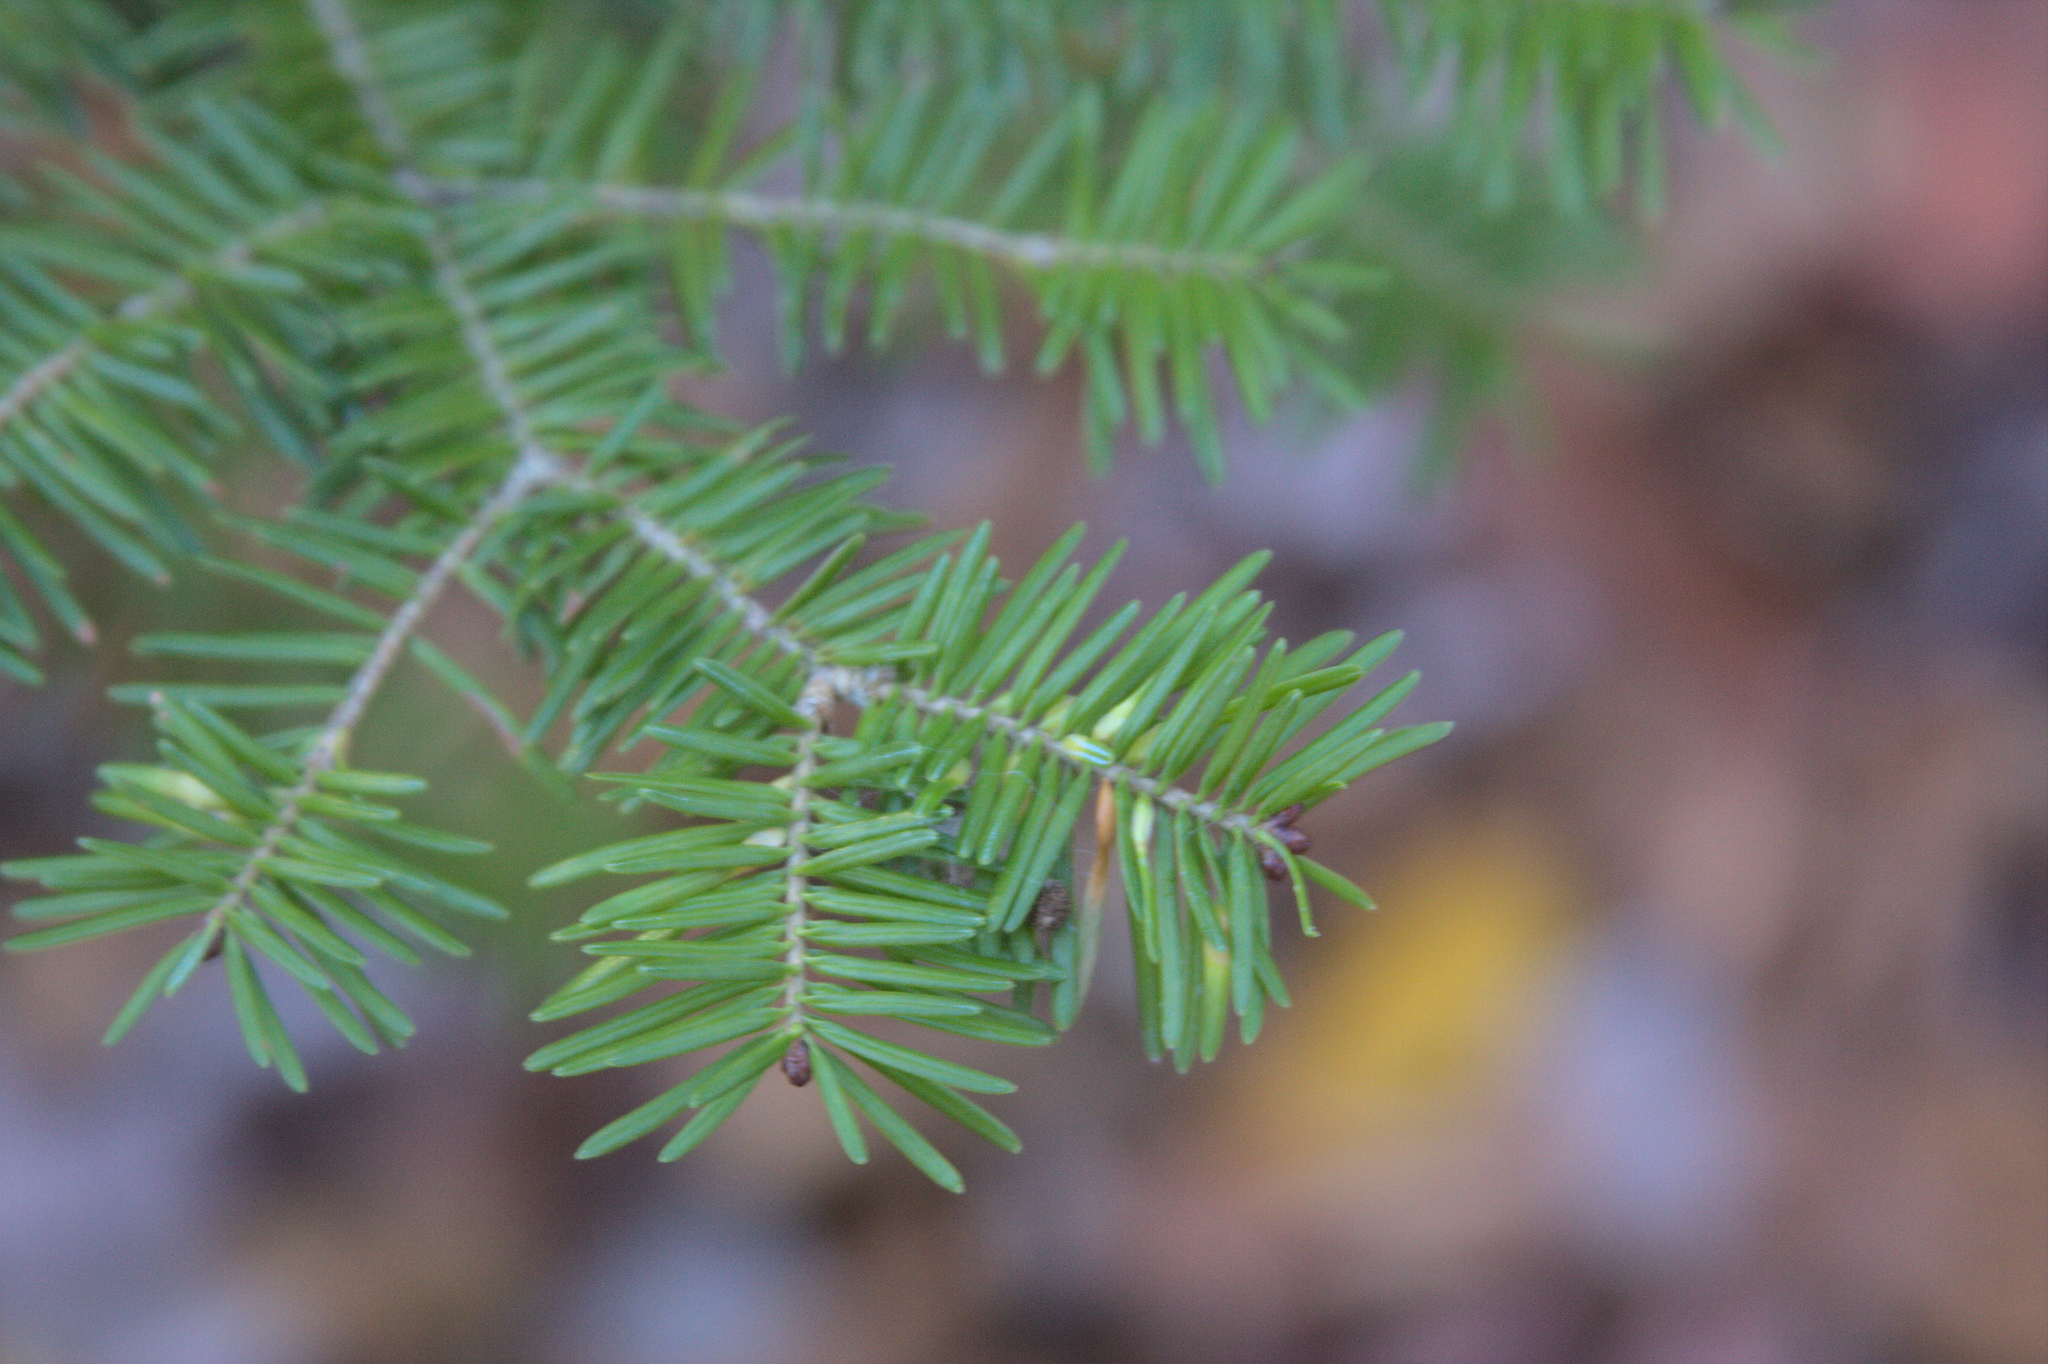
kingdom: Animalia
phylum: Arthropoda
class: Insecta
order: Diptera
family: Cecidomyiidae
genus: Paradiplosis
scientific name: Paradiplosis tumifex
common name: Gall midge
